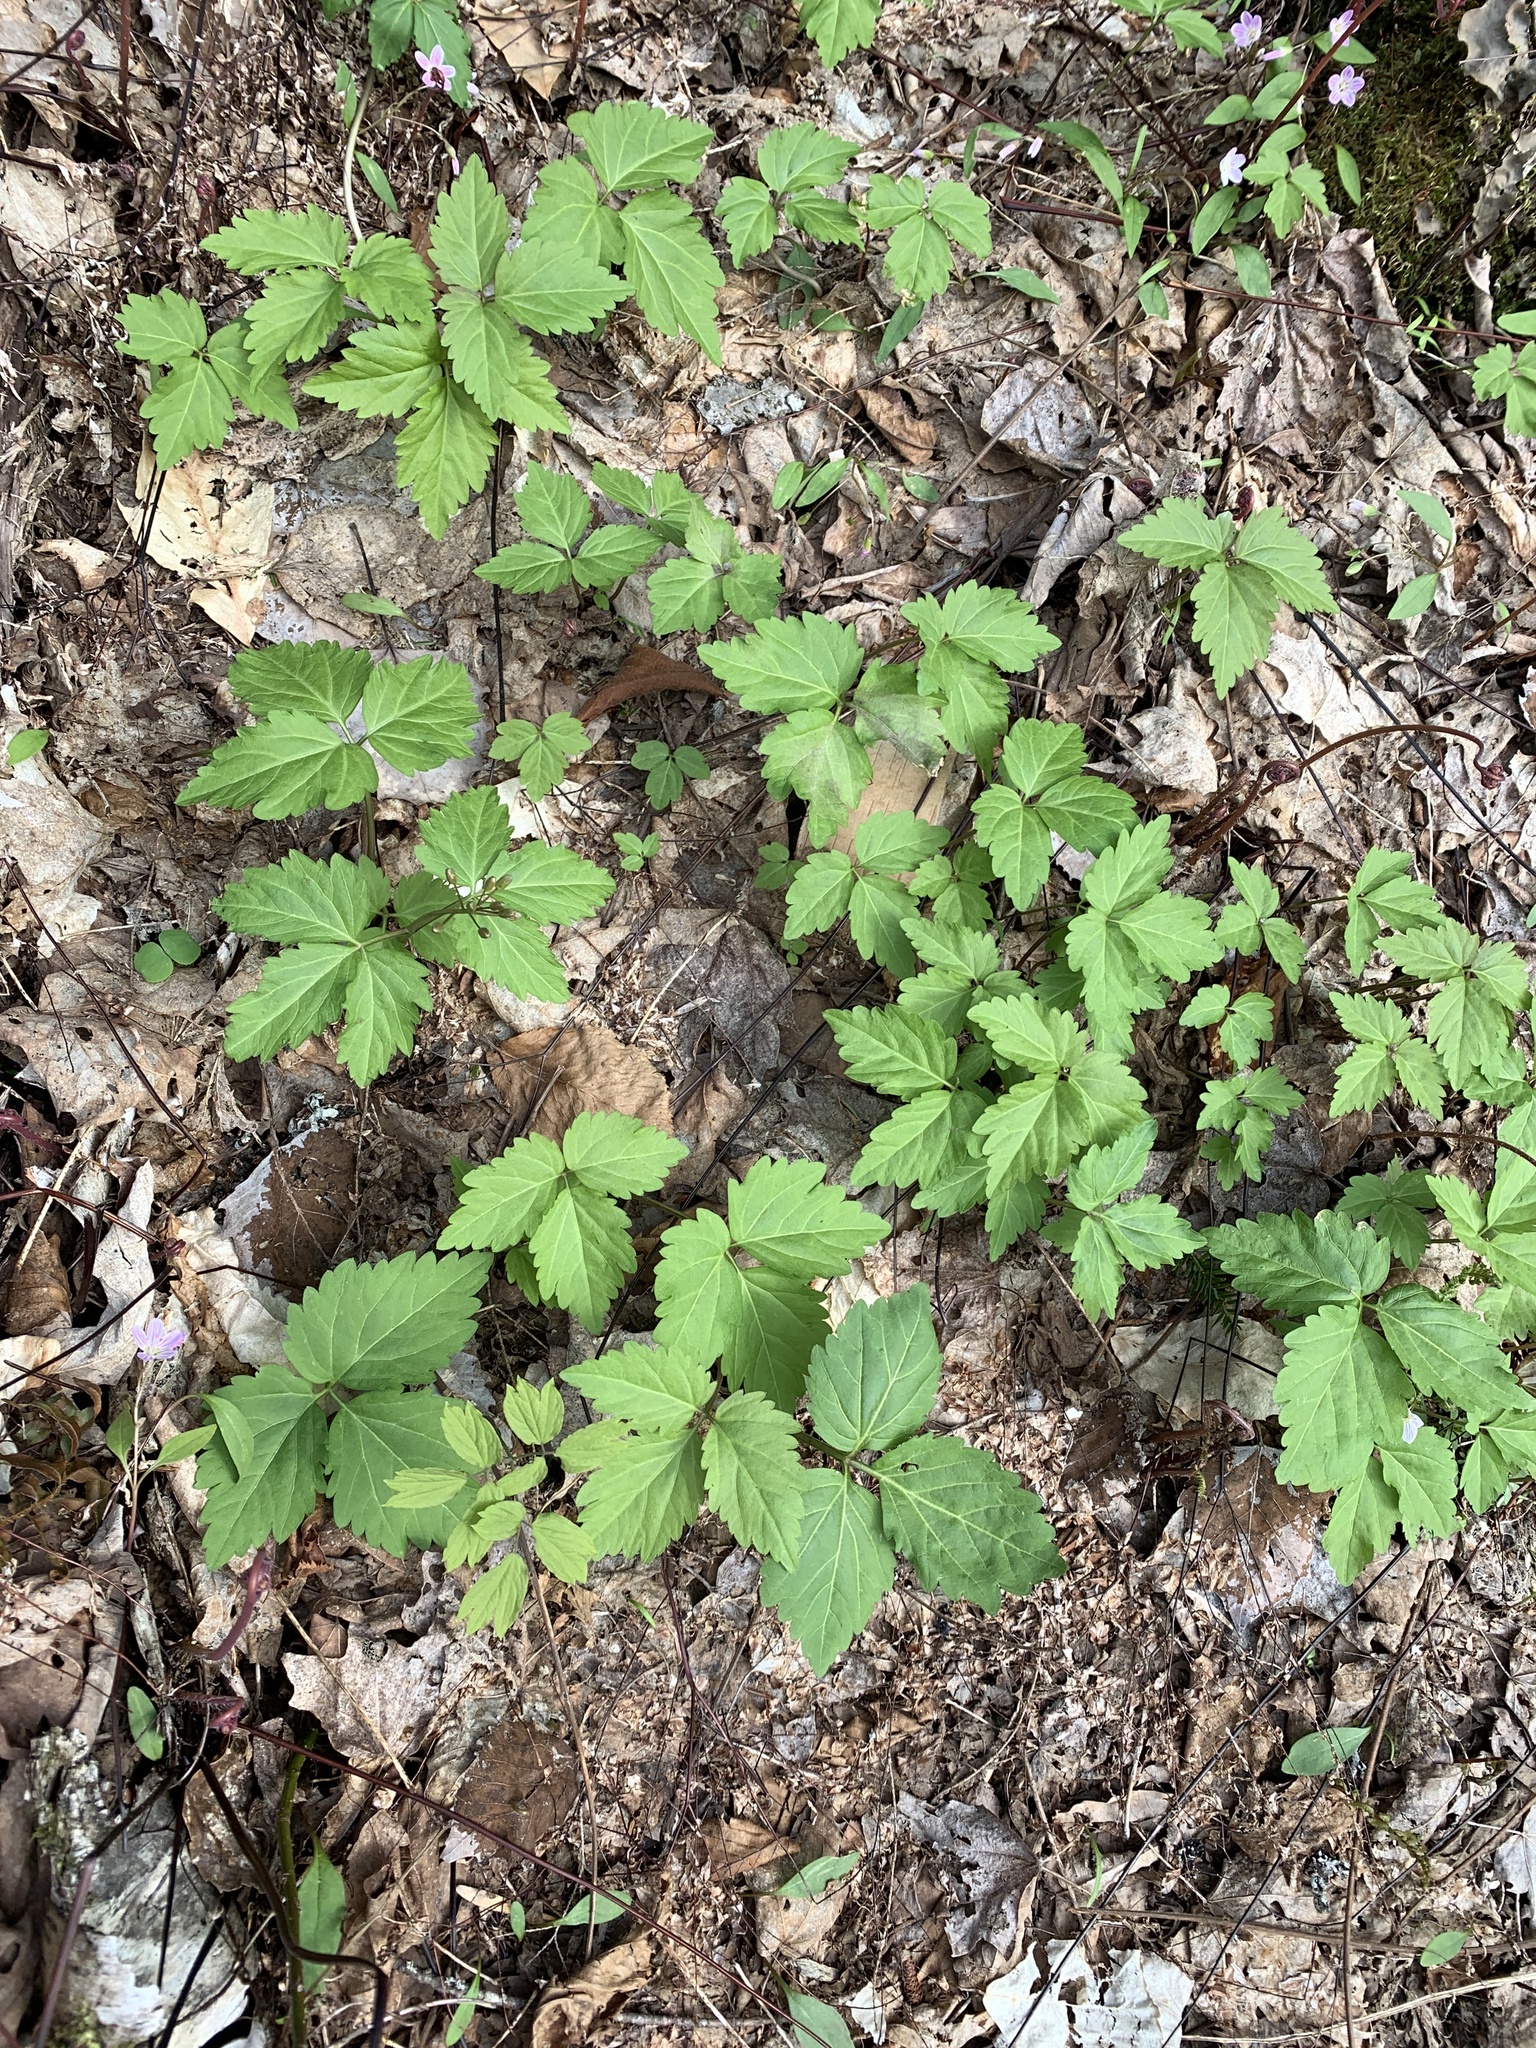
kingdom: Plantae
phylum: Tracheophyta
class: Magnoliopsida
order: Brassicales
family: Brassicaceae
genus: Cardamine
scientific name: Cardamine diphylla
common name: Broad-leaved toothwort
